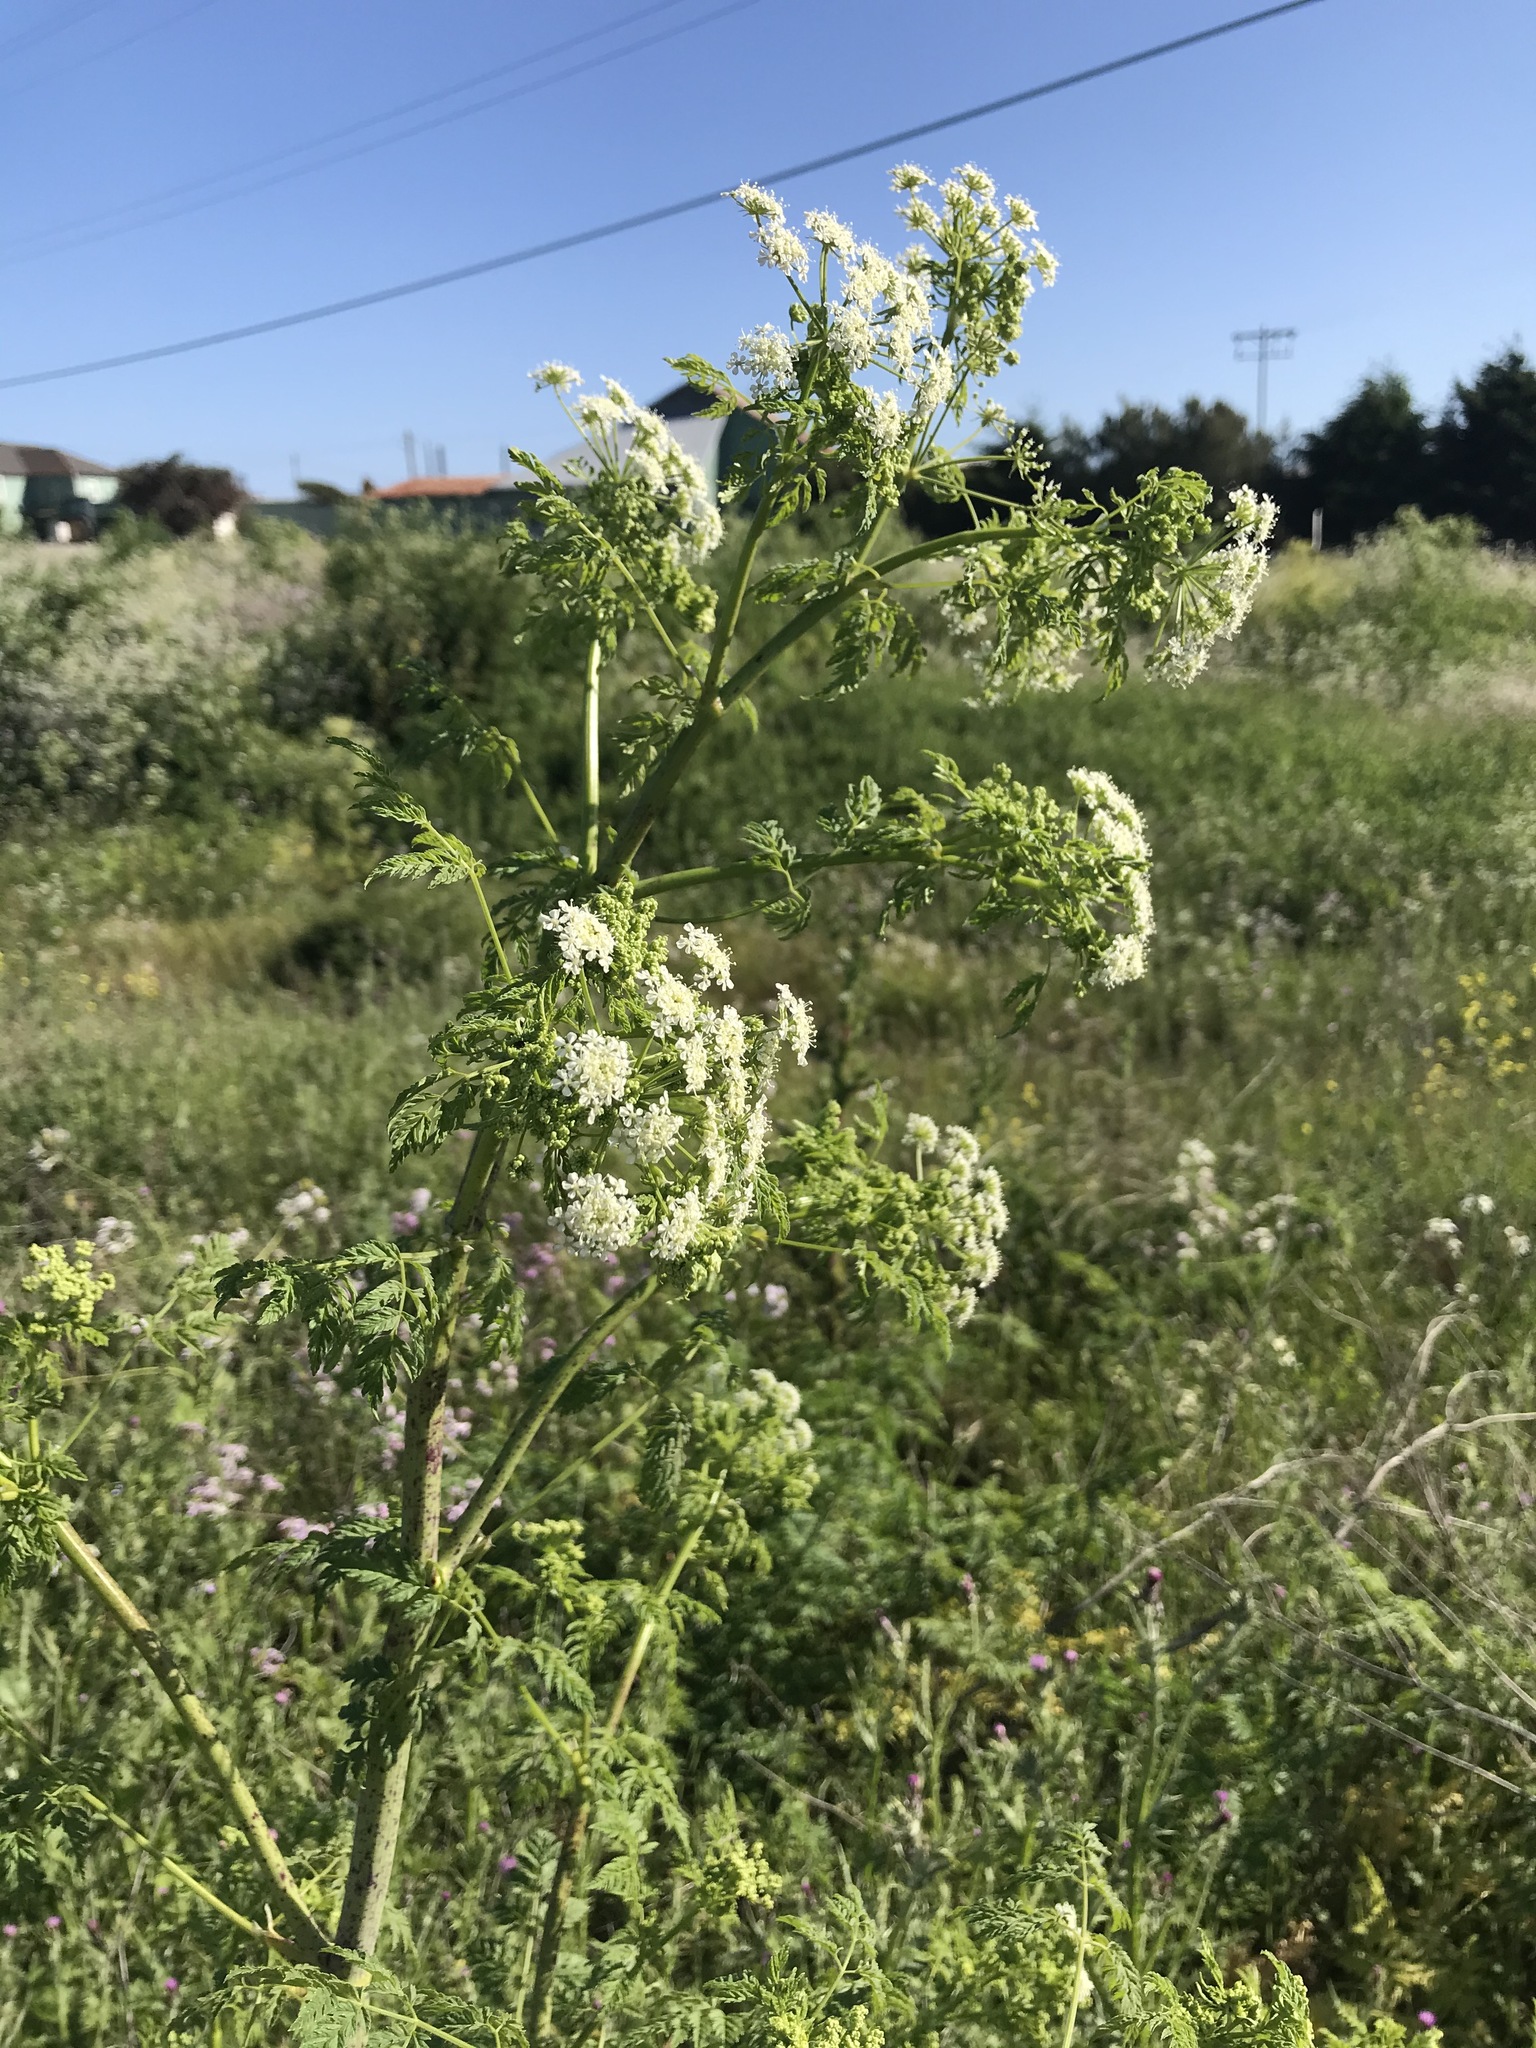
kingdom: Plantae
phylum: Tracheophyta
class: Magnoliopsida
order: Apiales
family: Apiaceae
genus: Conium
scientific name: Conium maculatum
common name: Hemlock
